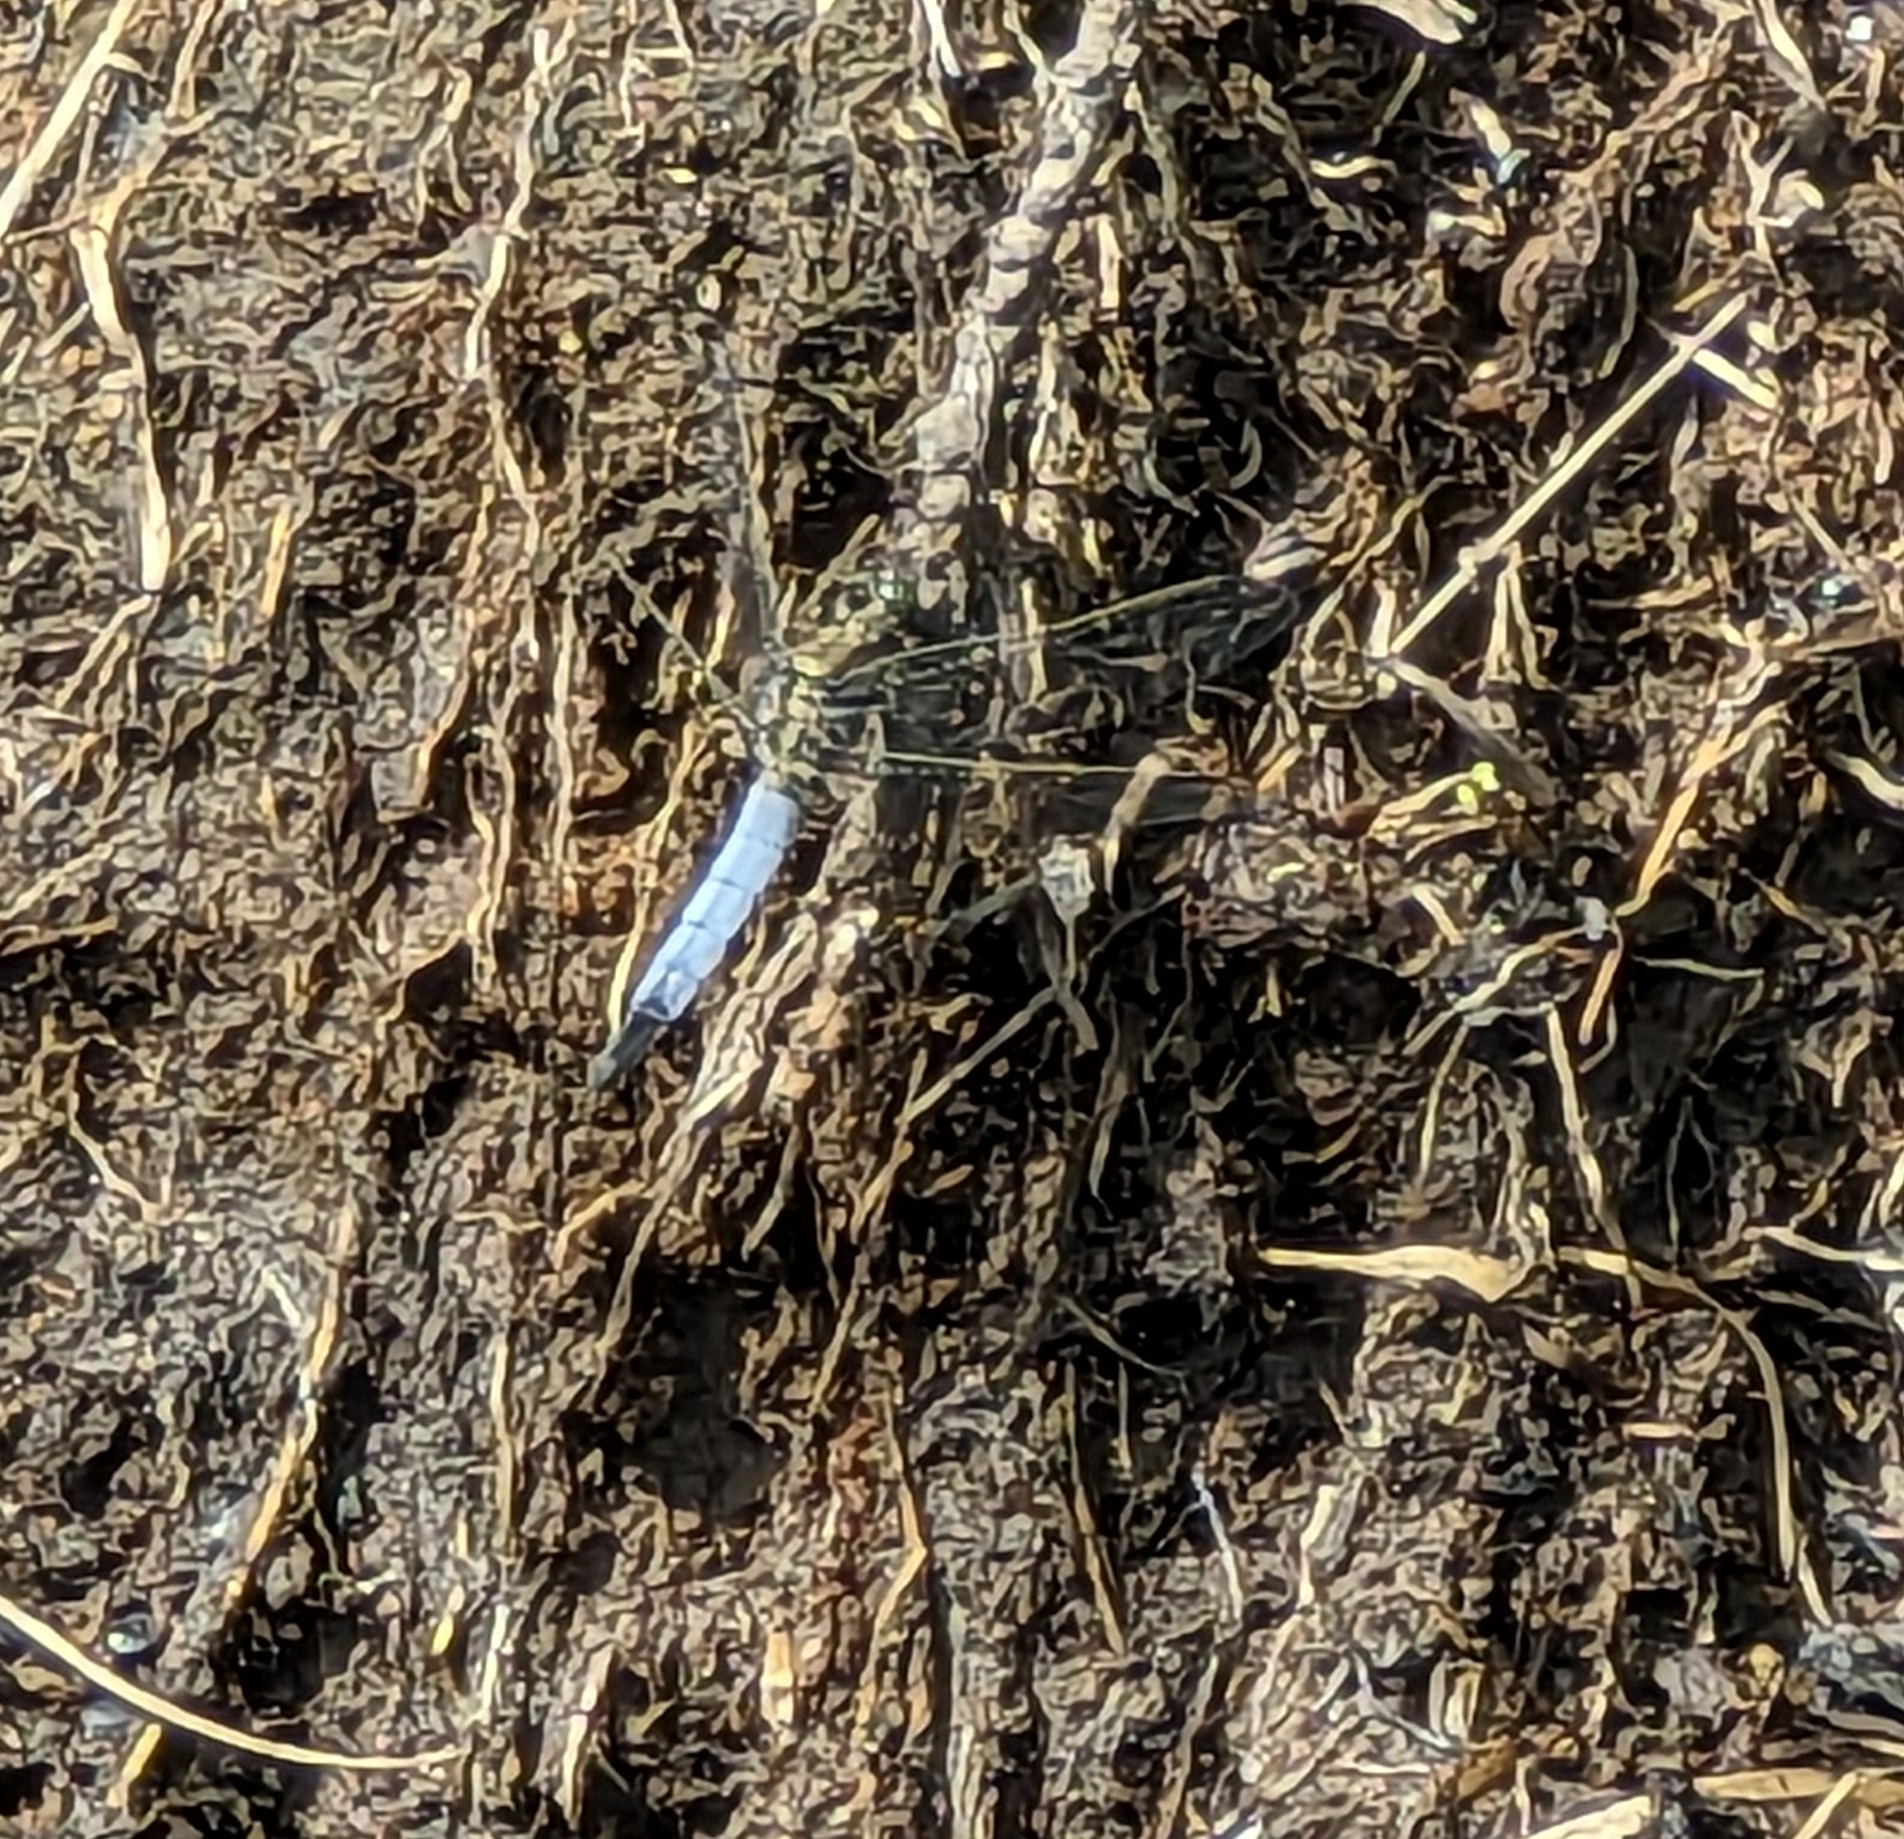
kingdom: Animalia
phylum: Arthropoda
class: Insecta
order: Odonata
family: Libellulidae
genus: Orthetrum
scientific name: Orthetrum cancellatum
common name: Black-tailed skimmer
